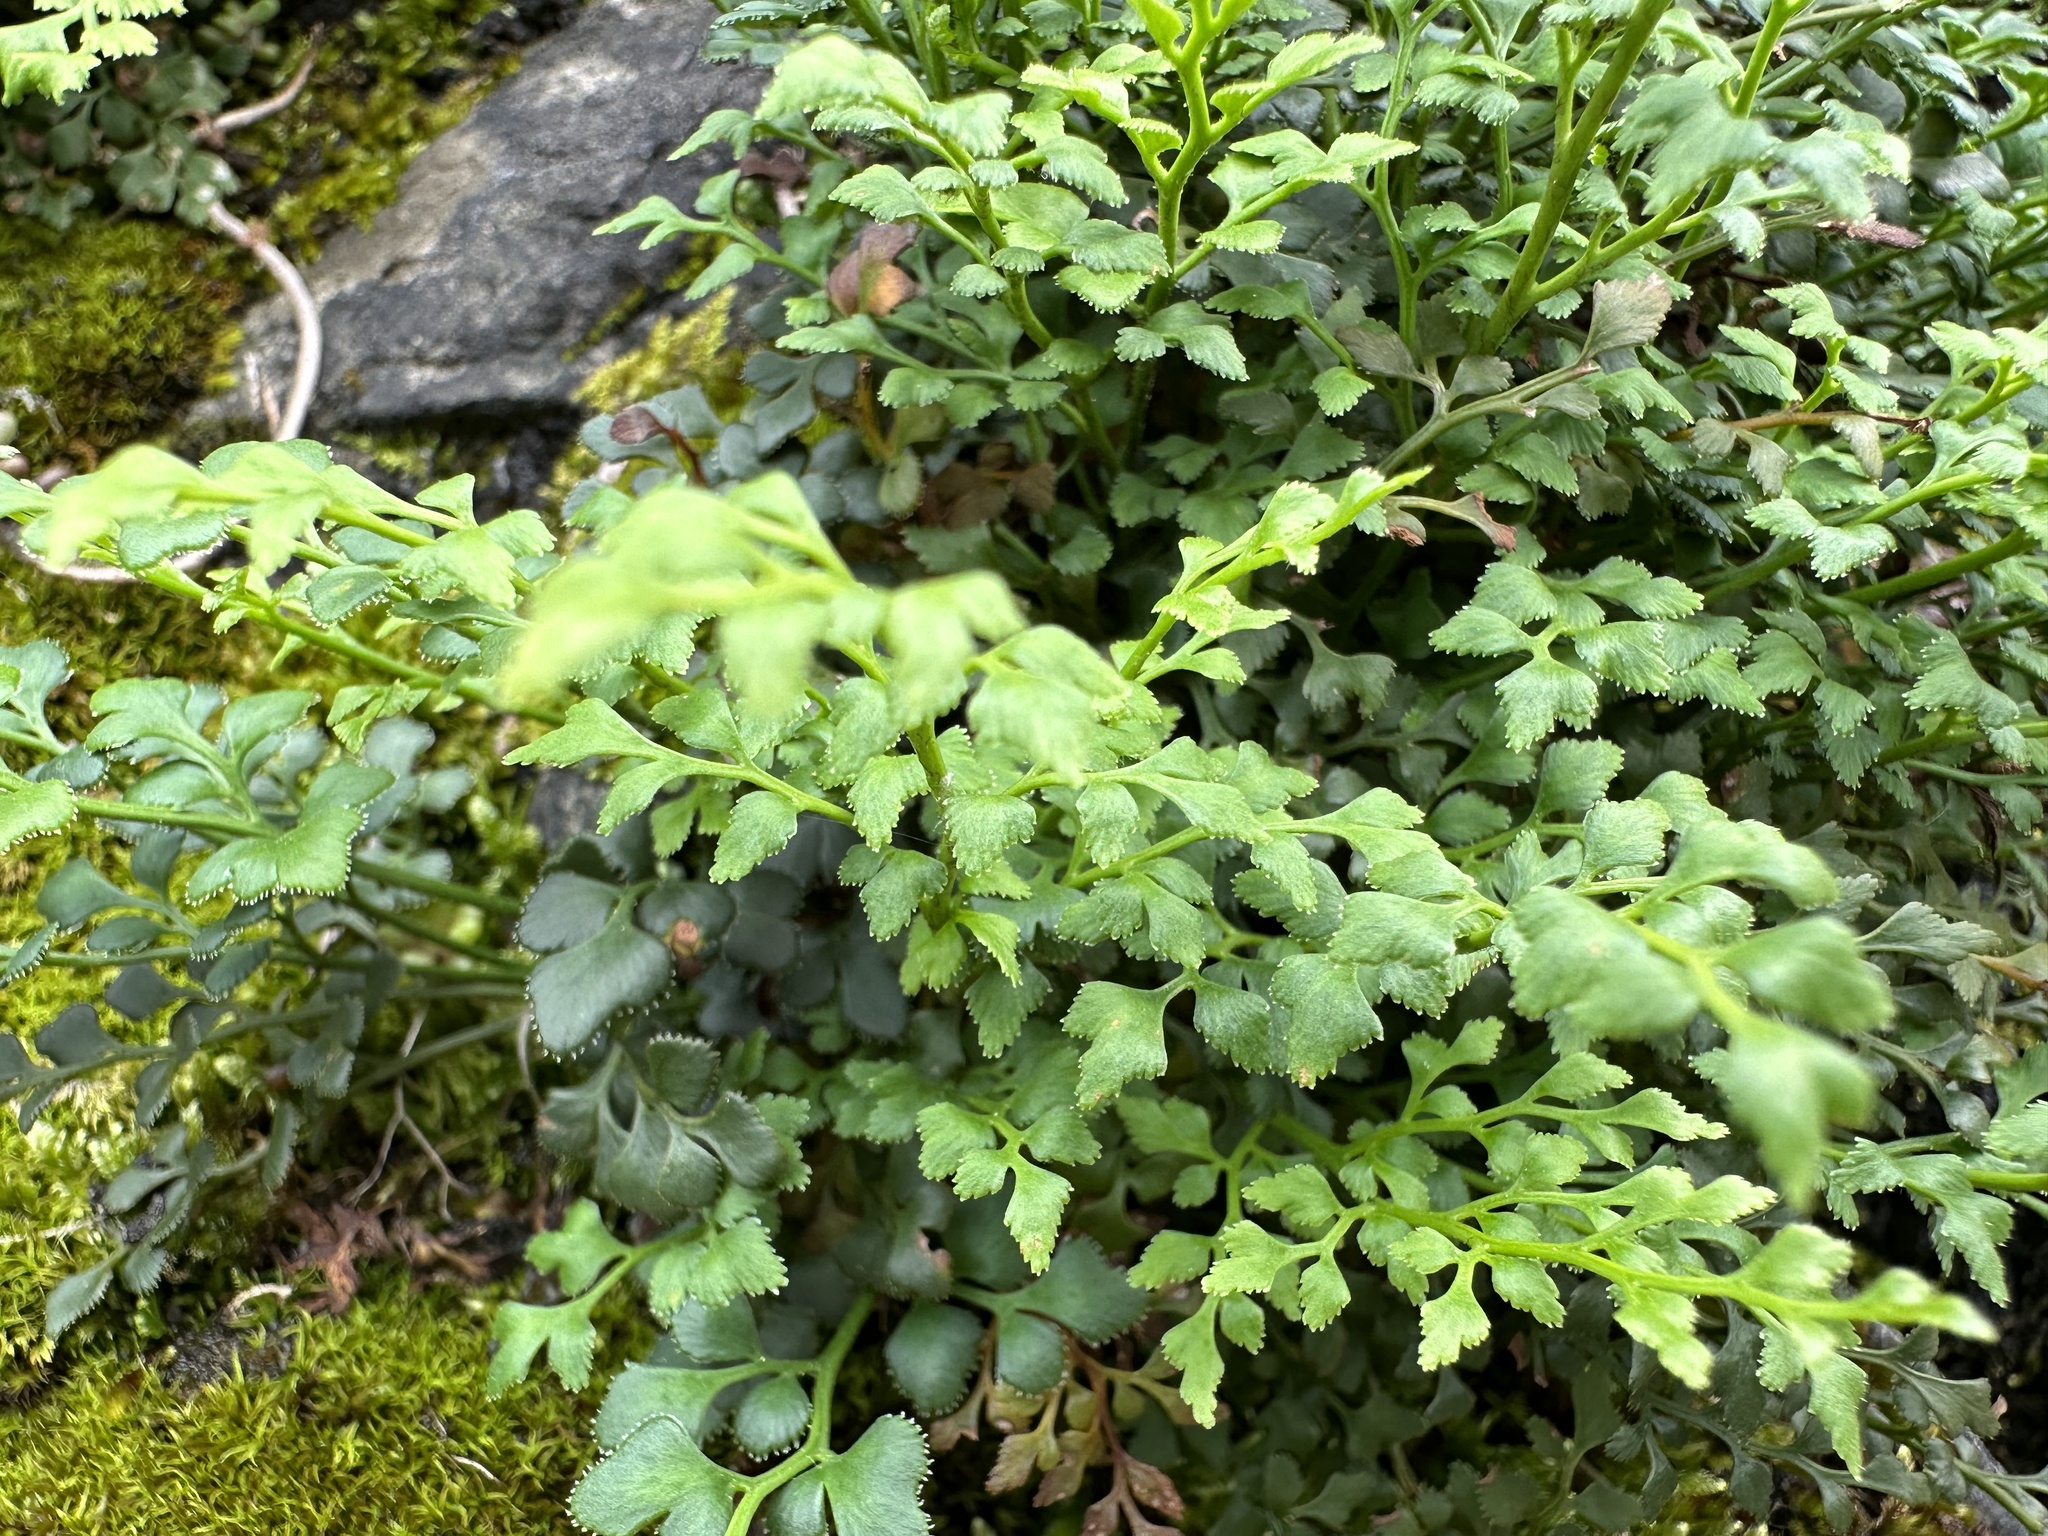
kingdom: Plantae
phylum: Tracheophyta
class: Polypodiopsida
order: Polypodiales
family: Aspleniaceae
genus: Asplenium
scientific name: Asplenium ruta-muraria
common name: Wall-rue
